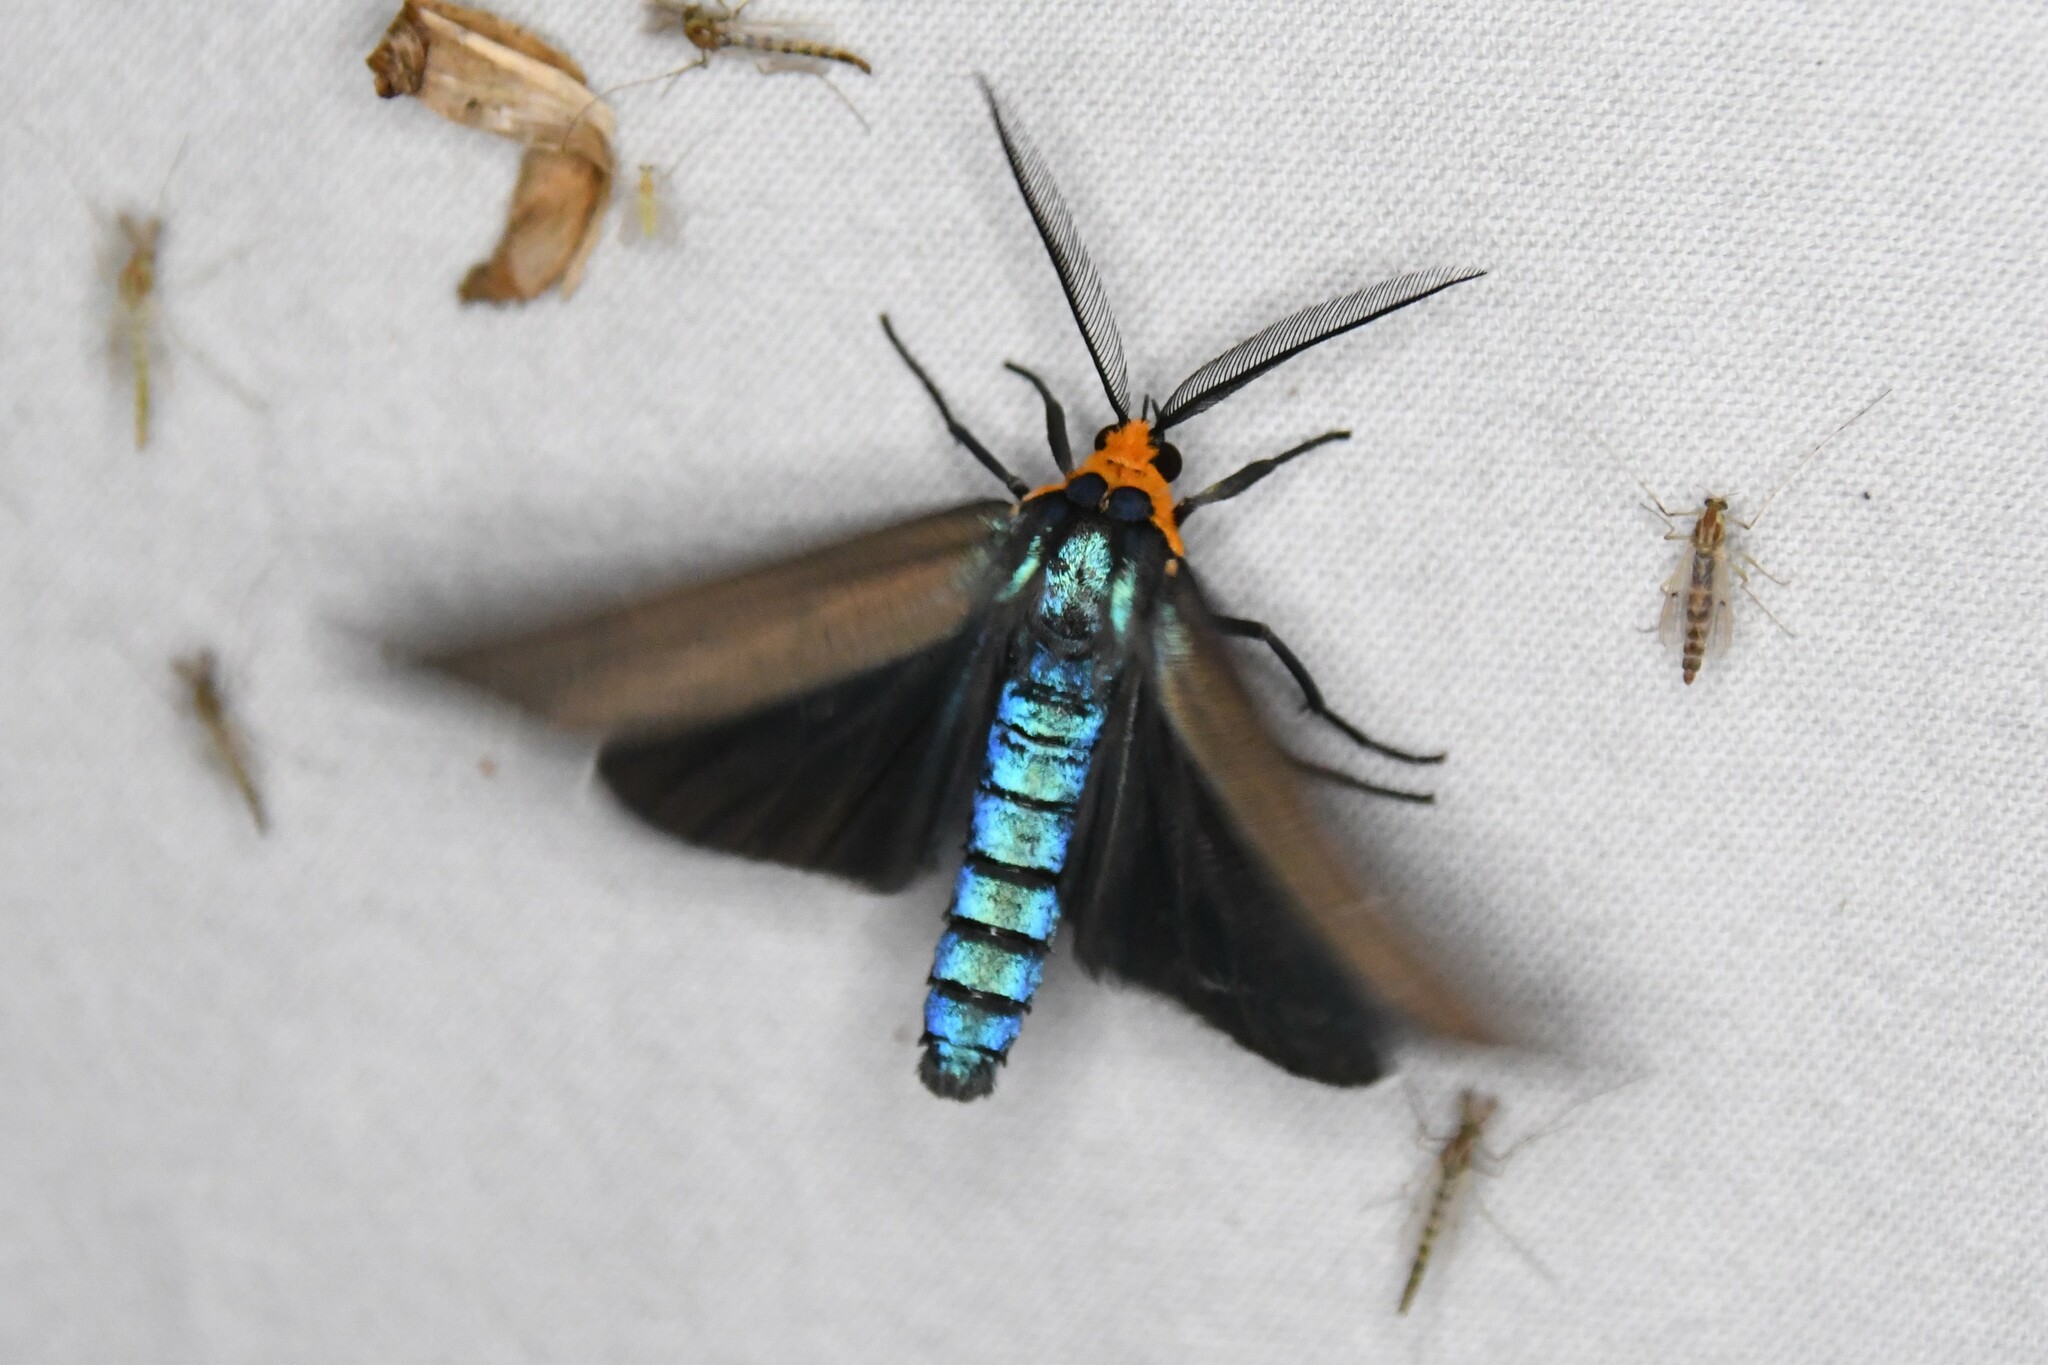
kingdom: Animalia
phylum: Arthropoda
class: Insecta
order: Lepidoptera
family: Erebidae
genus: Ctenucha
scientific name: Ctenucha virginica
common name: Virginia ctenucha moth
